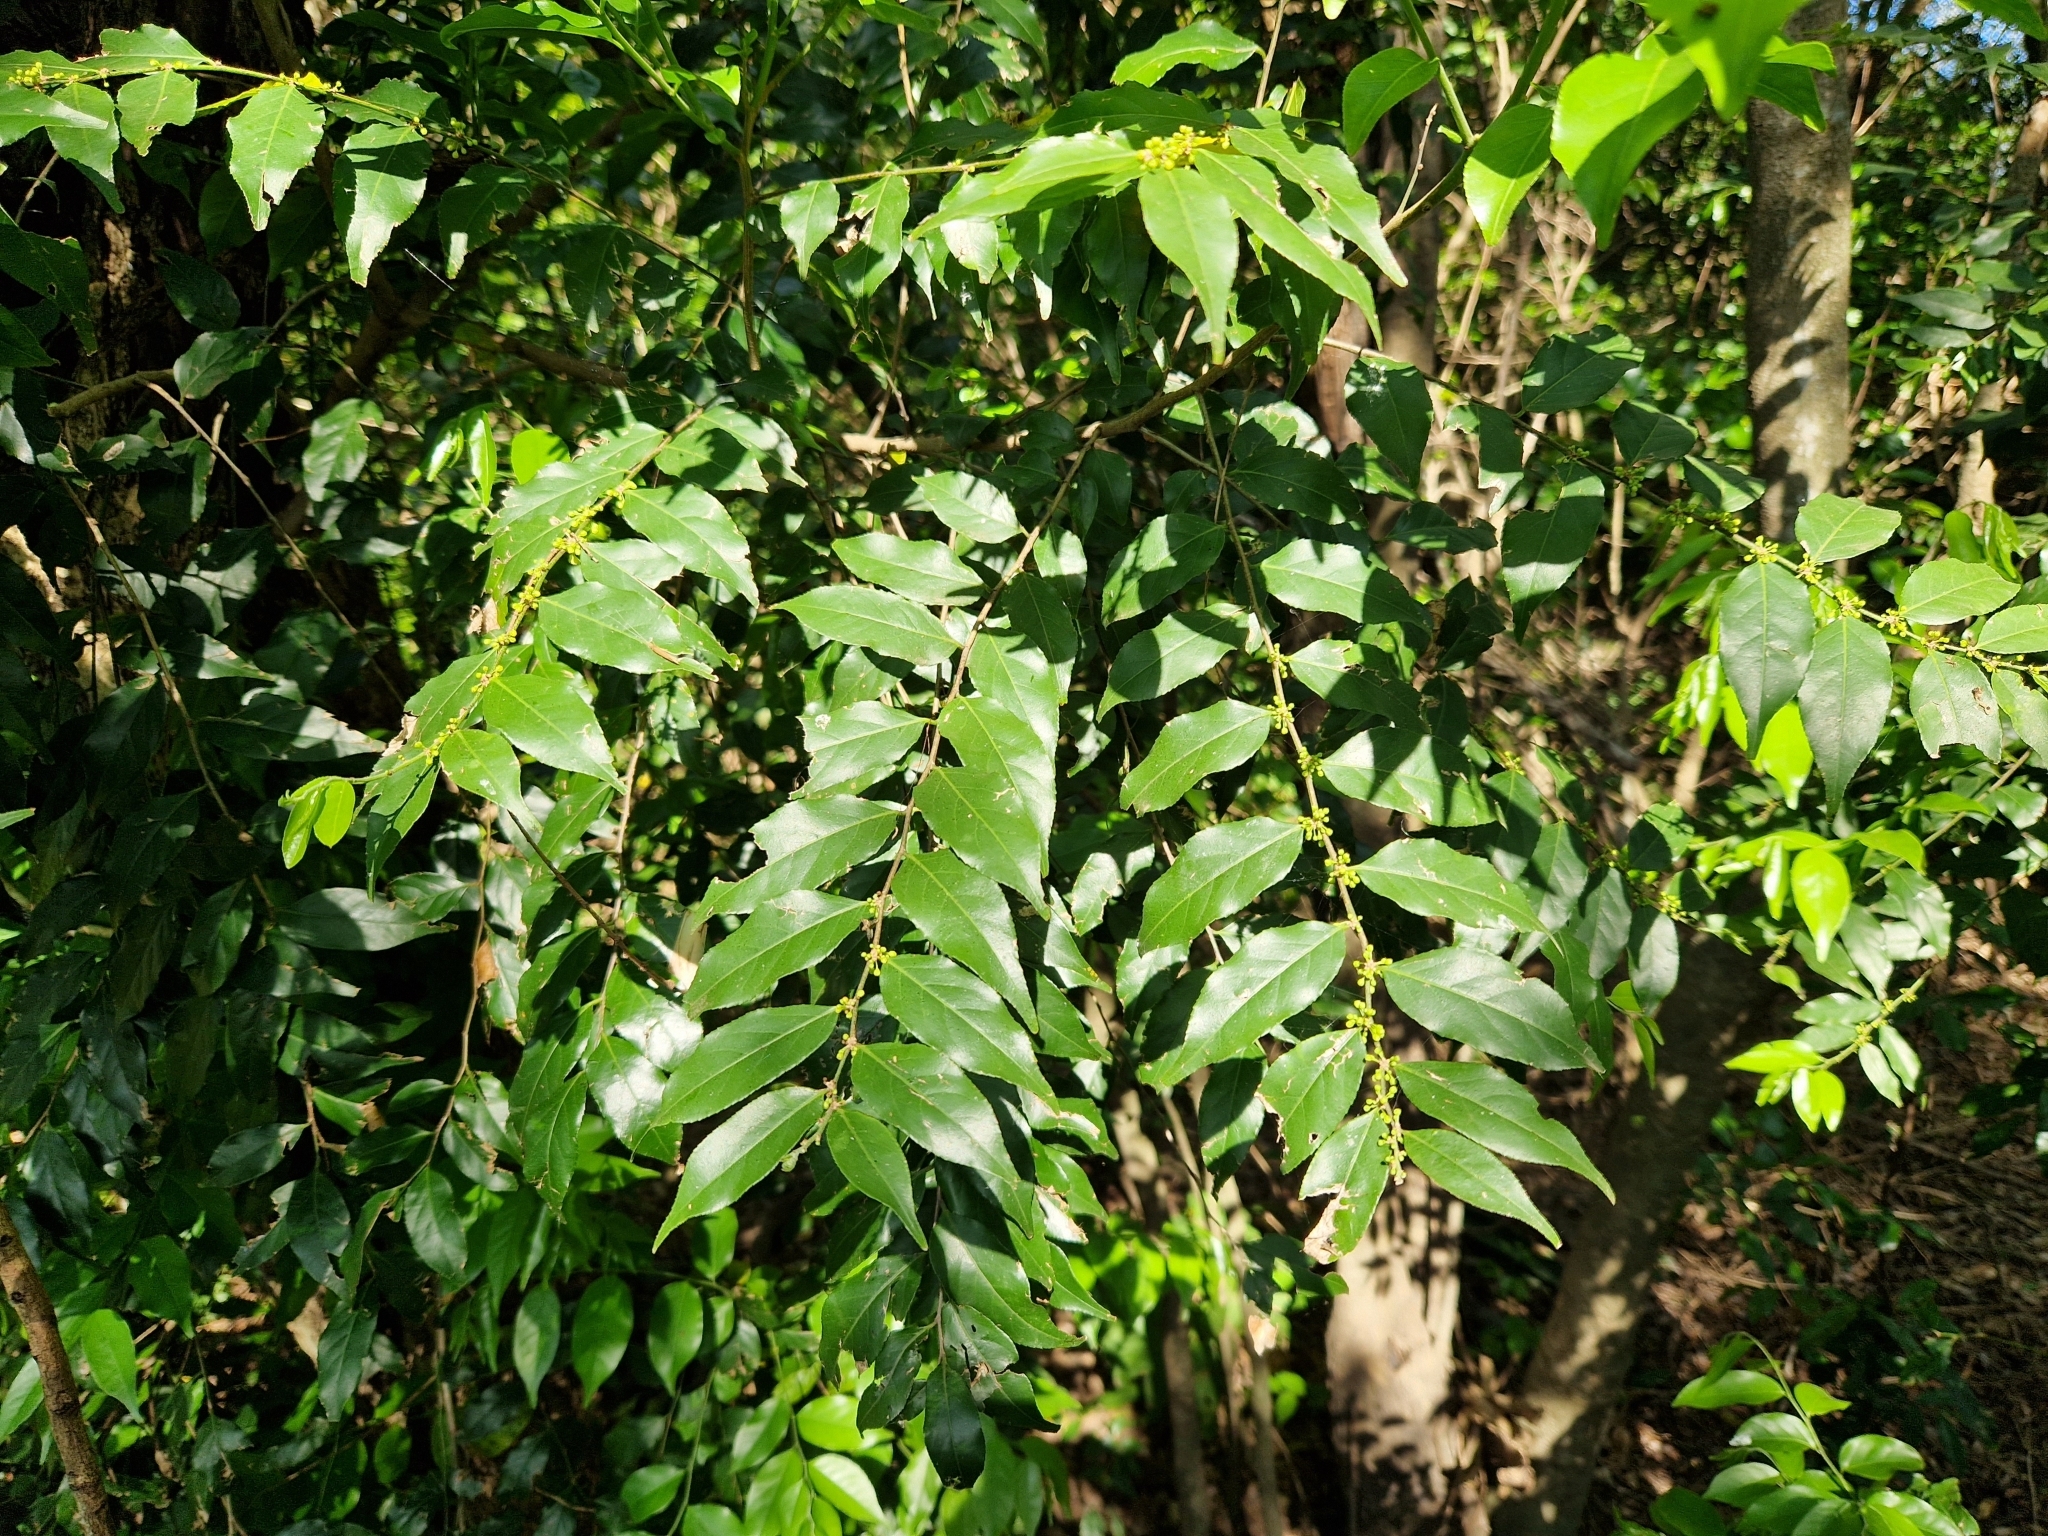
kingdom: Plantae
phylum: Tracheophyta
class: Magnoliopsida
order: Malpighiales
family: Salicaceae
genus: Casearia
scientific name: Casearia sylvestris
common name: Wild sage
